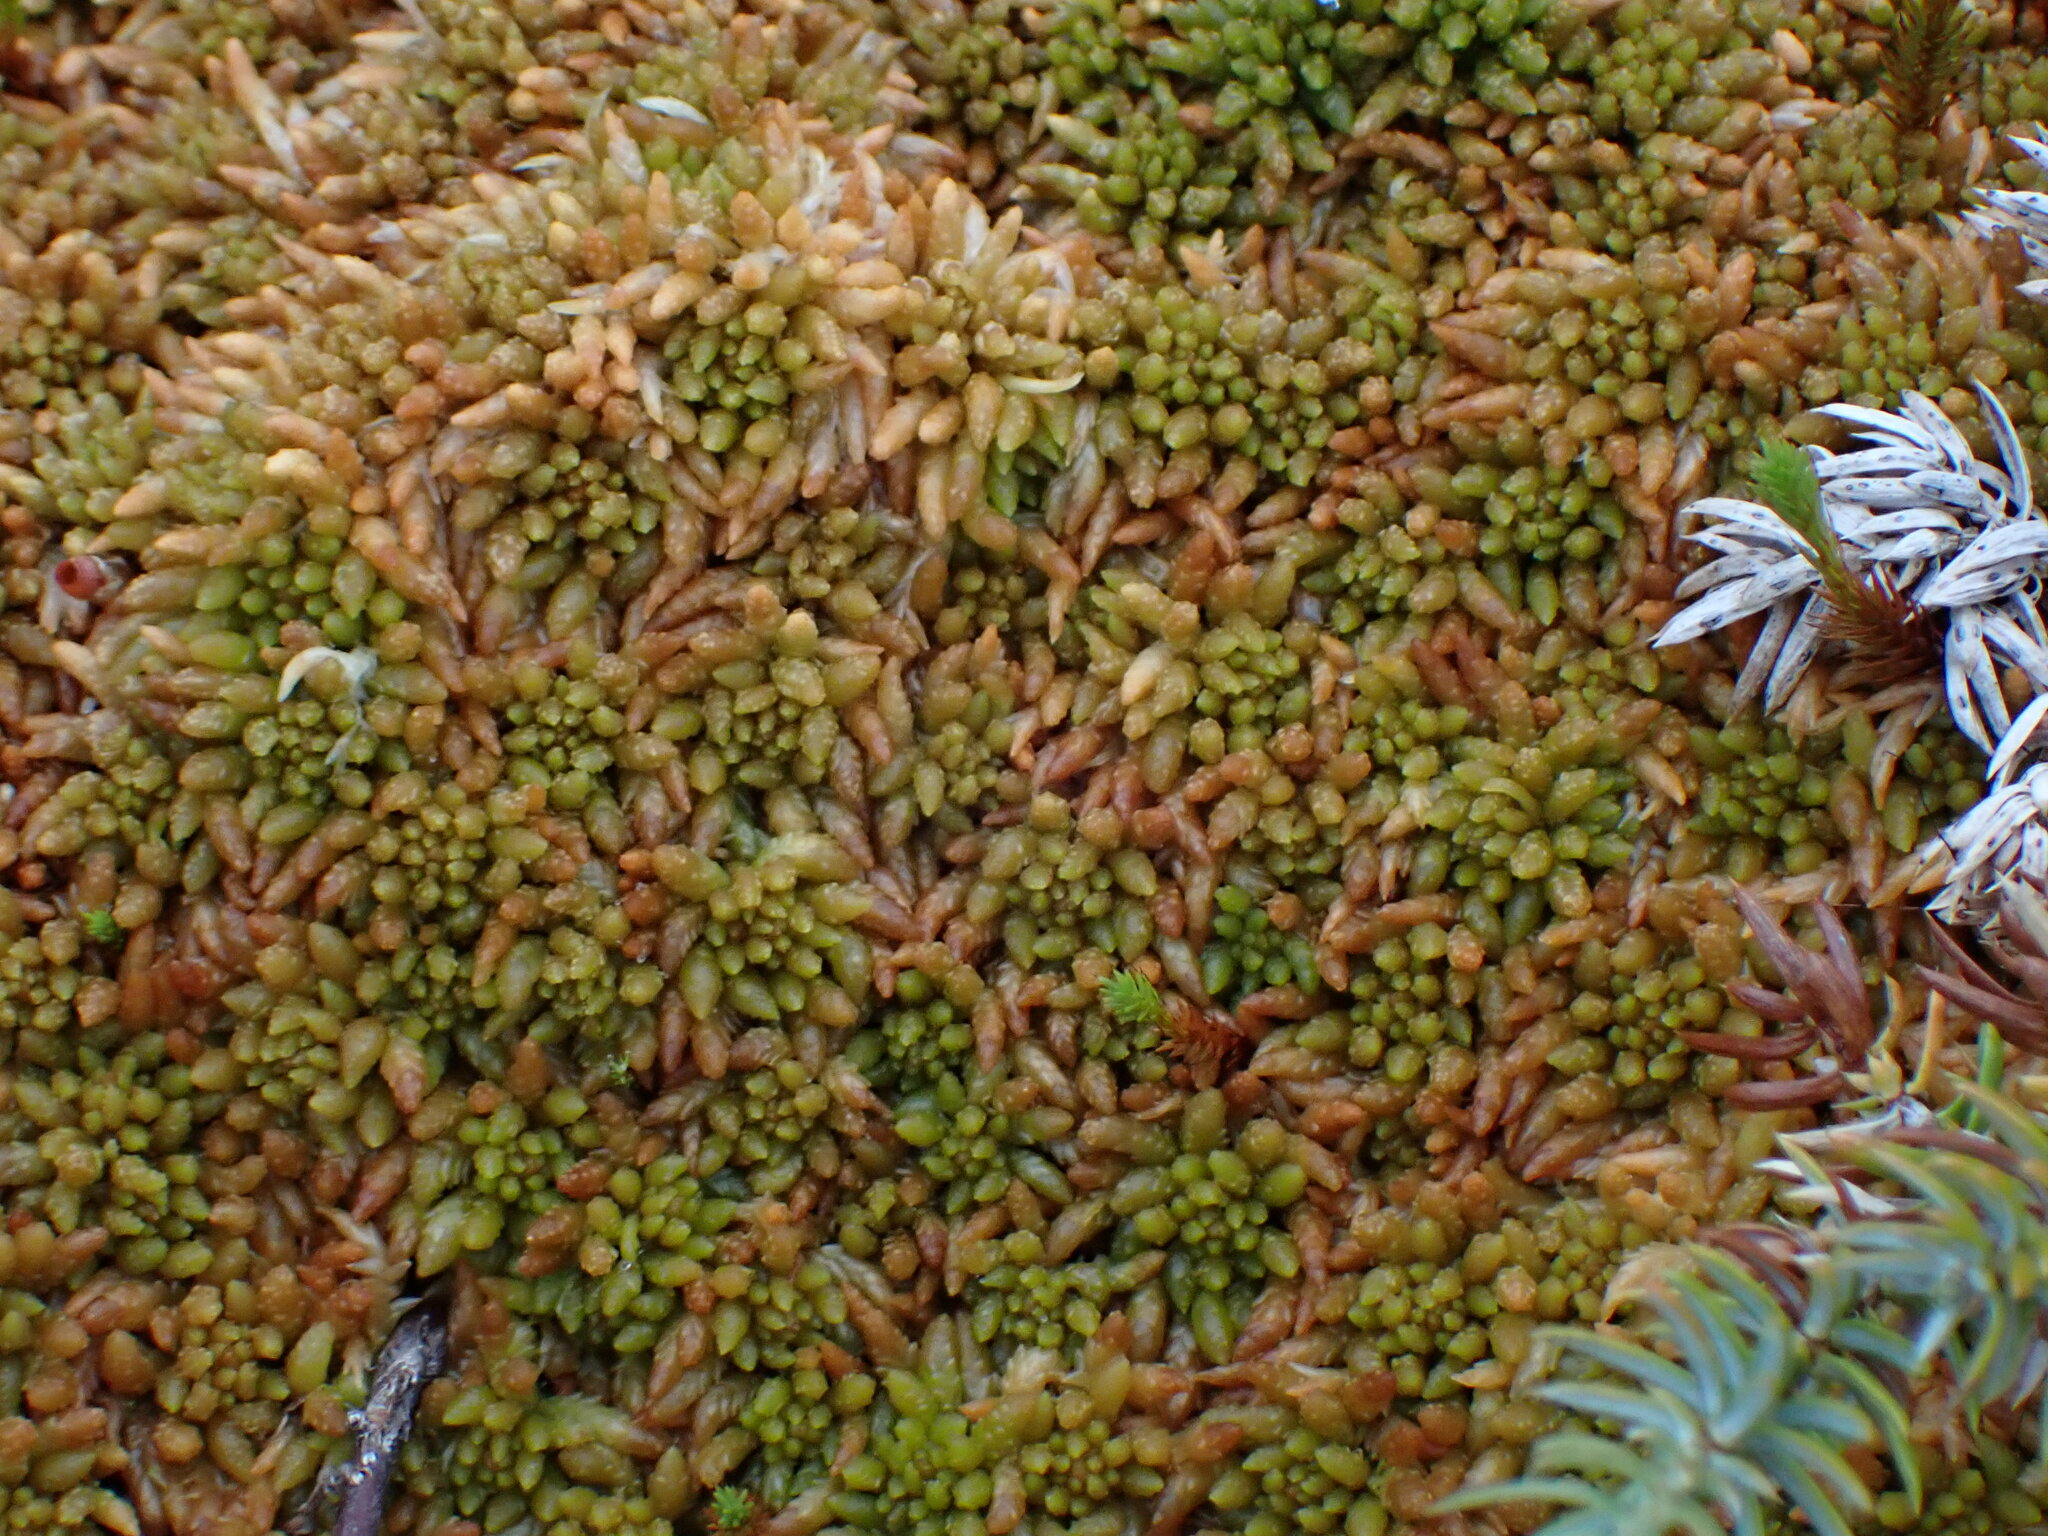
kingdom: Plantae
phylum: Bryophyta
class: Sphagnopsida
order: Sphagnales
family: Sphagnaceae
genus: Sphagnum
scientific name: Sphagnum austinii
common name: Austin's peat moss
